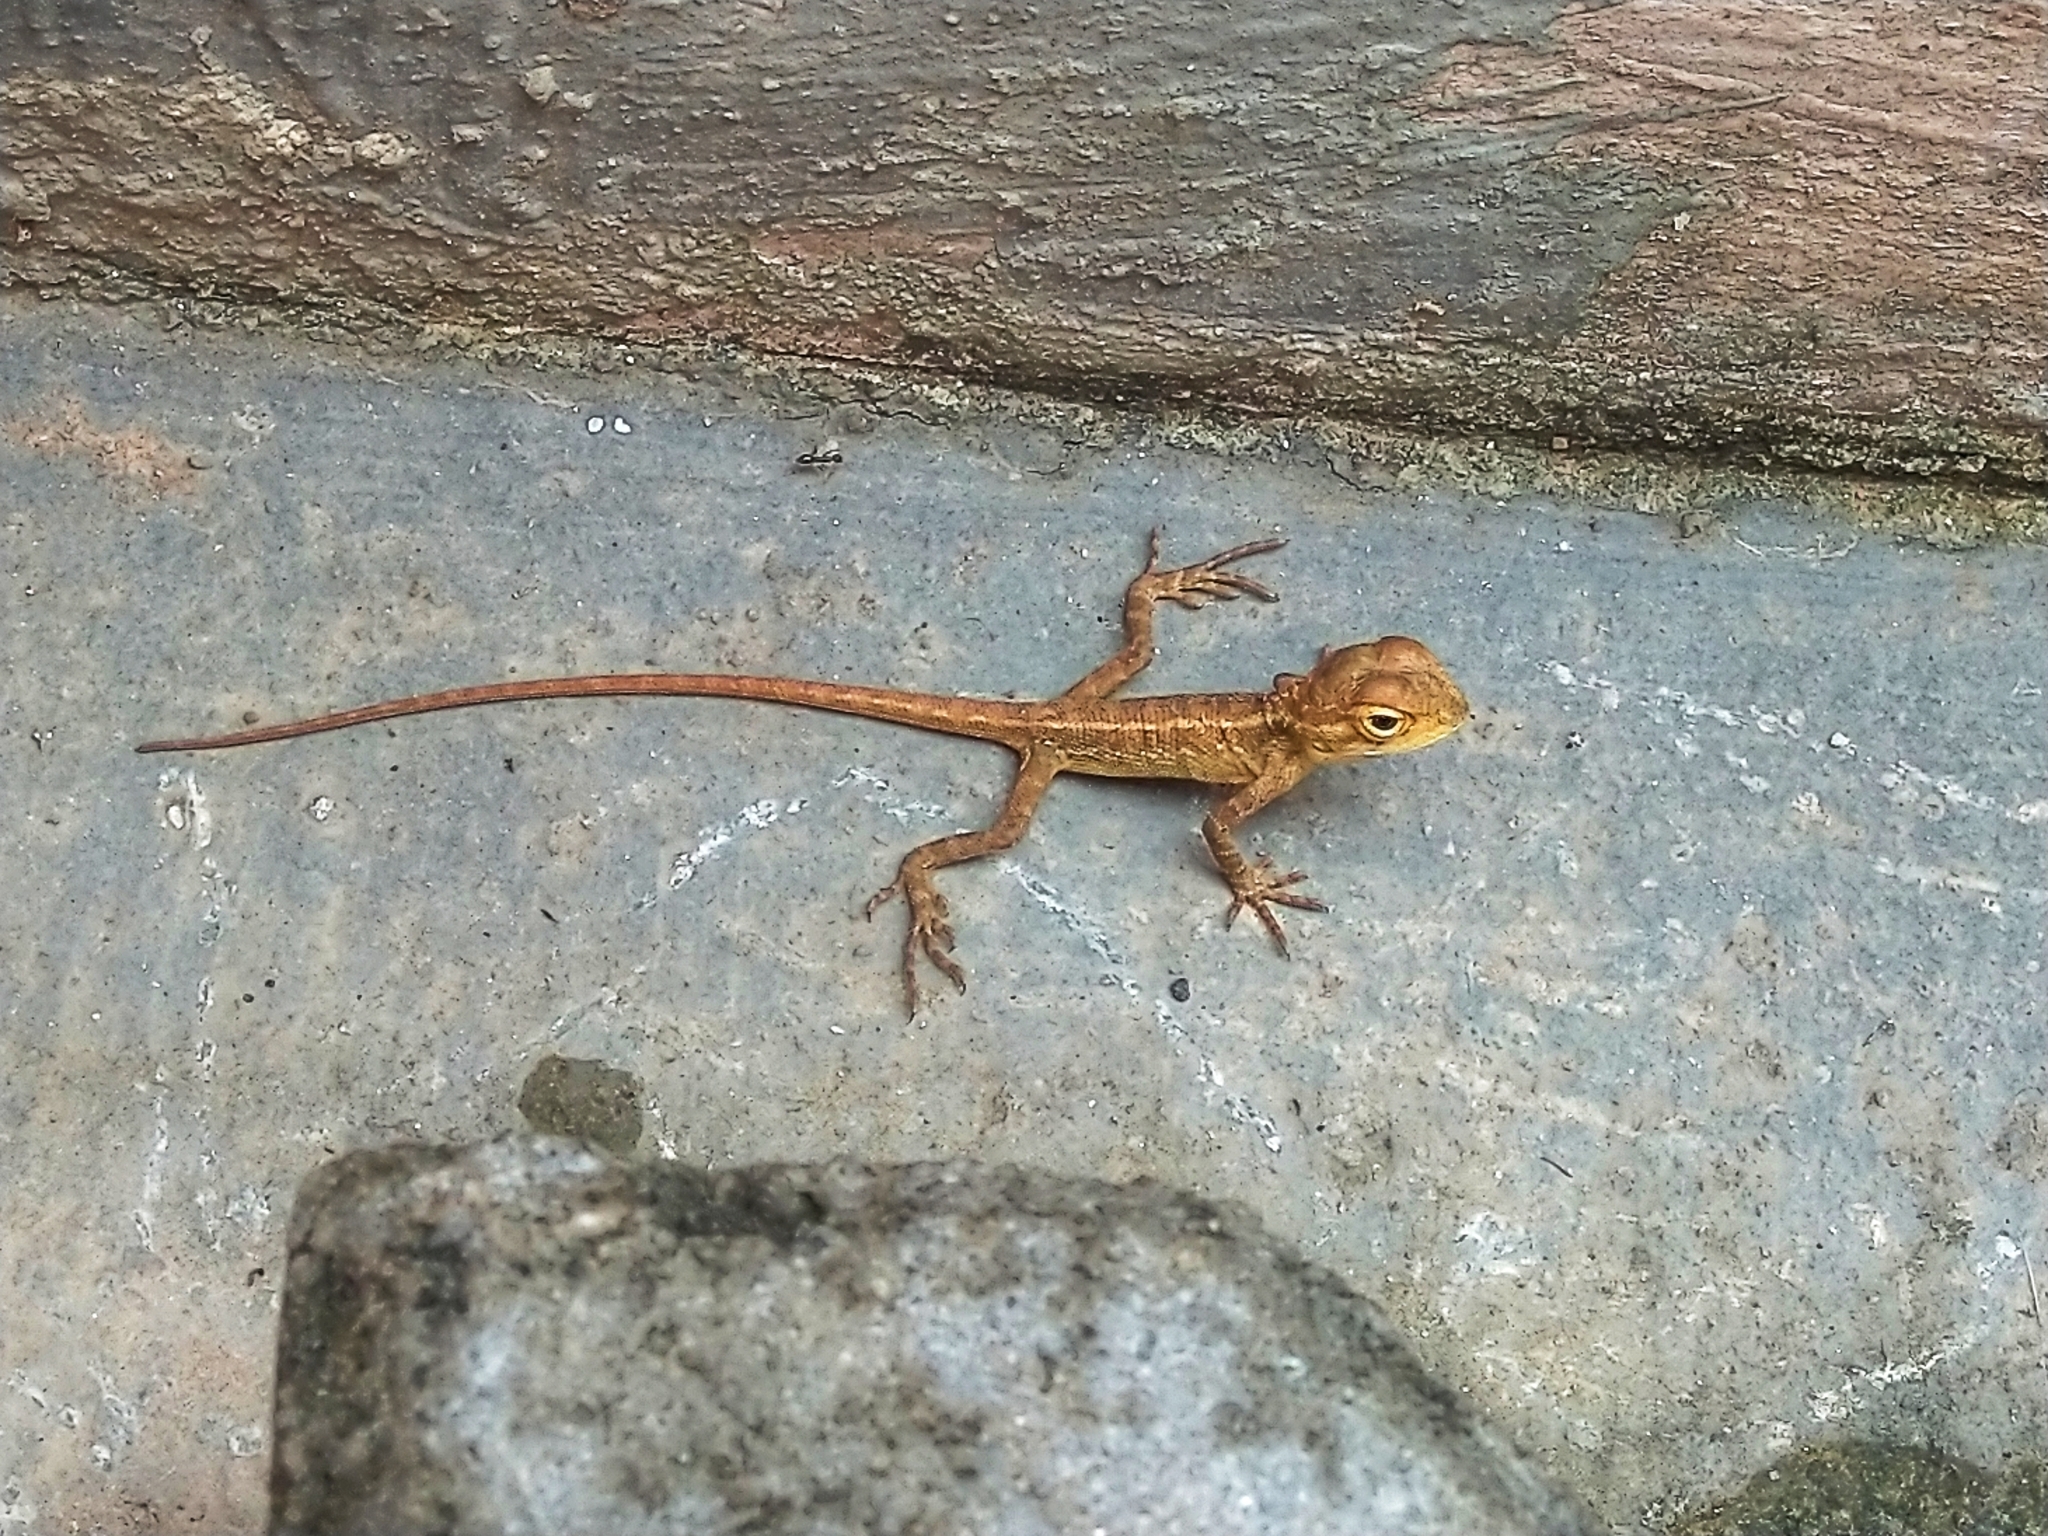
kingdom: Animalia
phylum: Chordata
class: Squamata
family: Agamidae
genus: Calotes
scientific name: Calotes versicolor
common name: Oriental garden lizard
